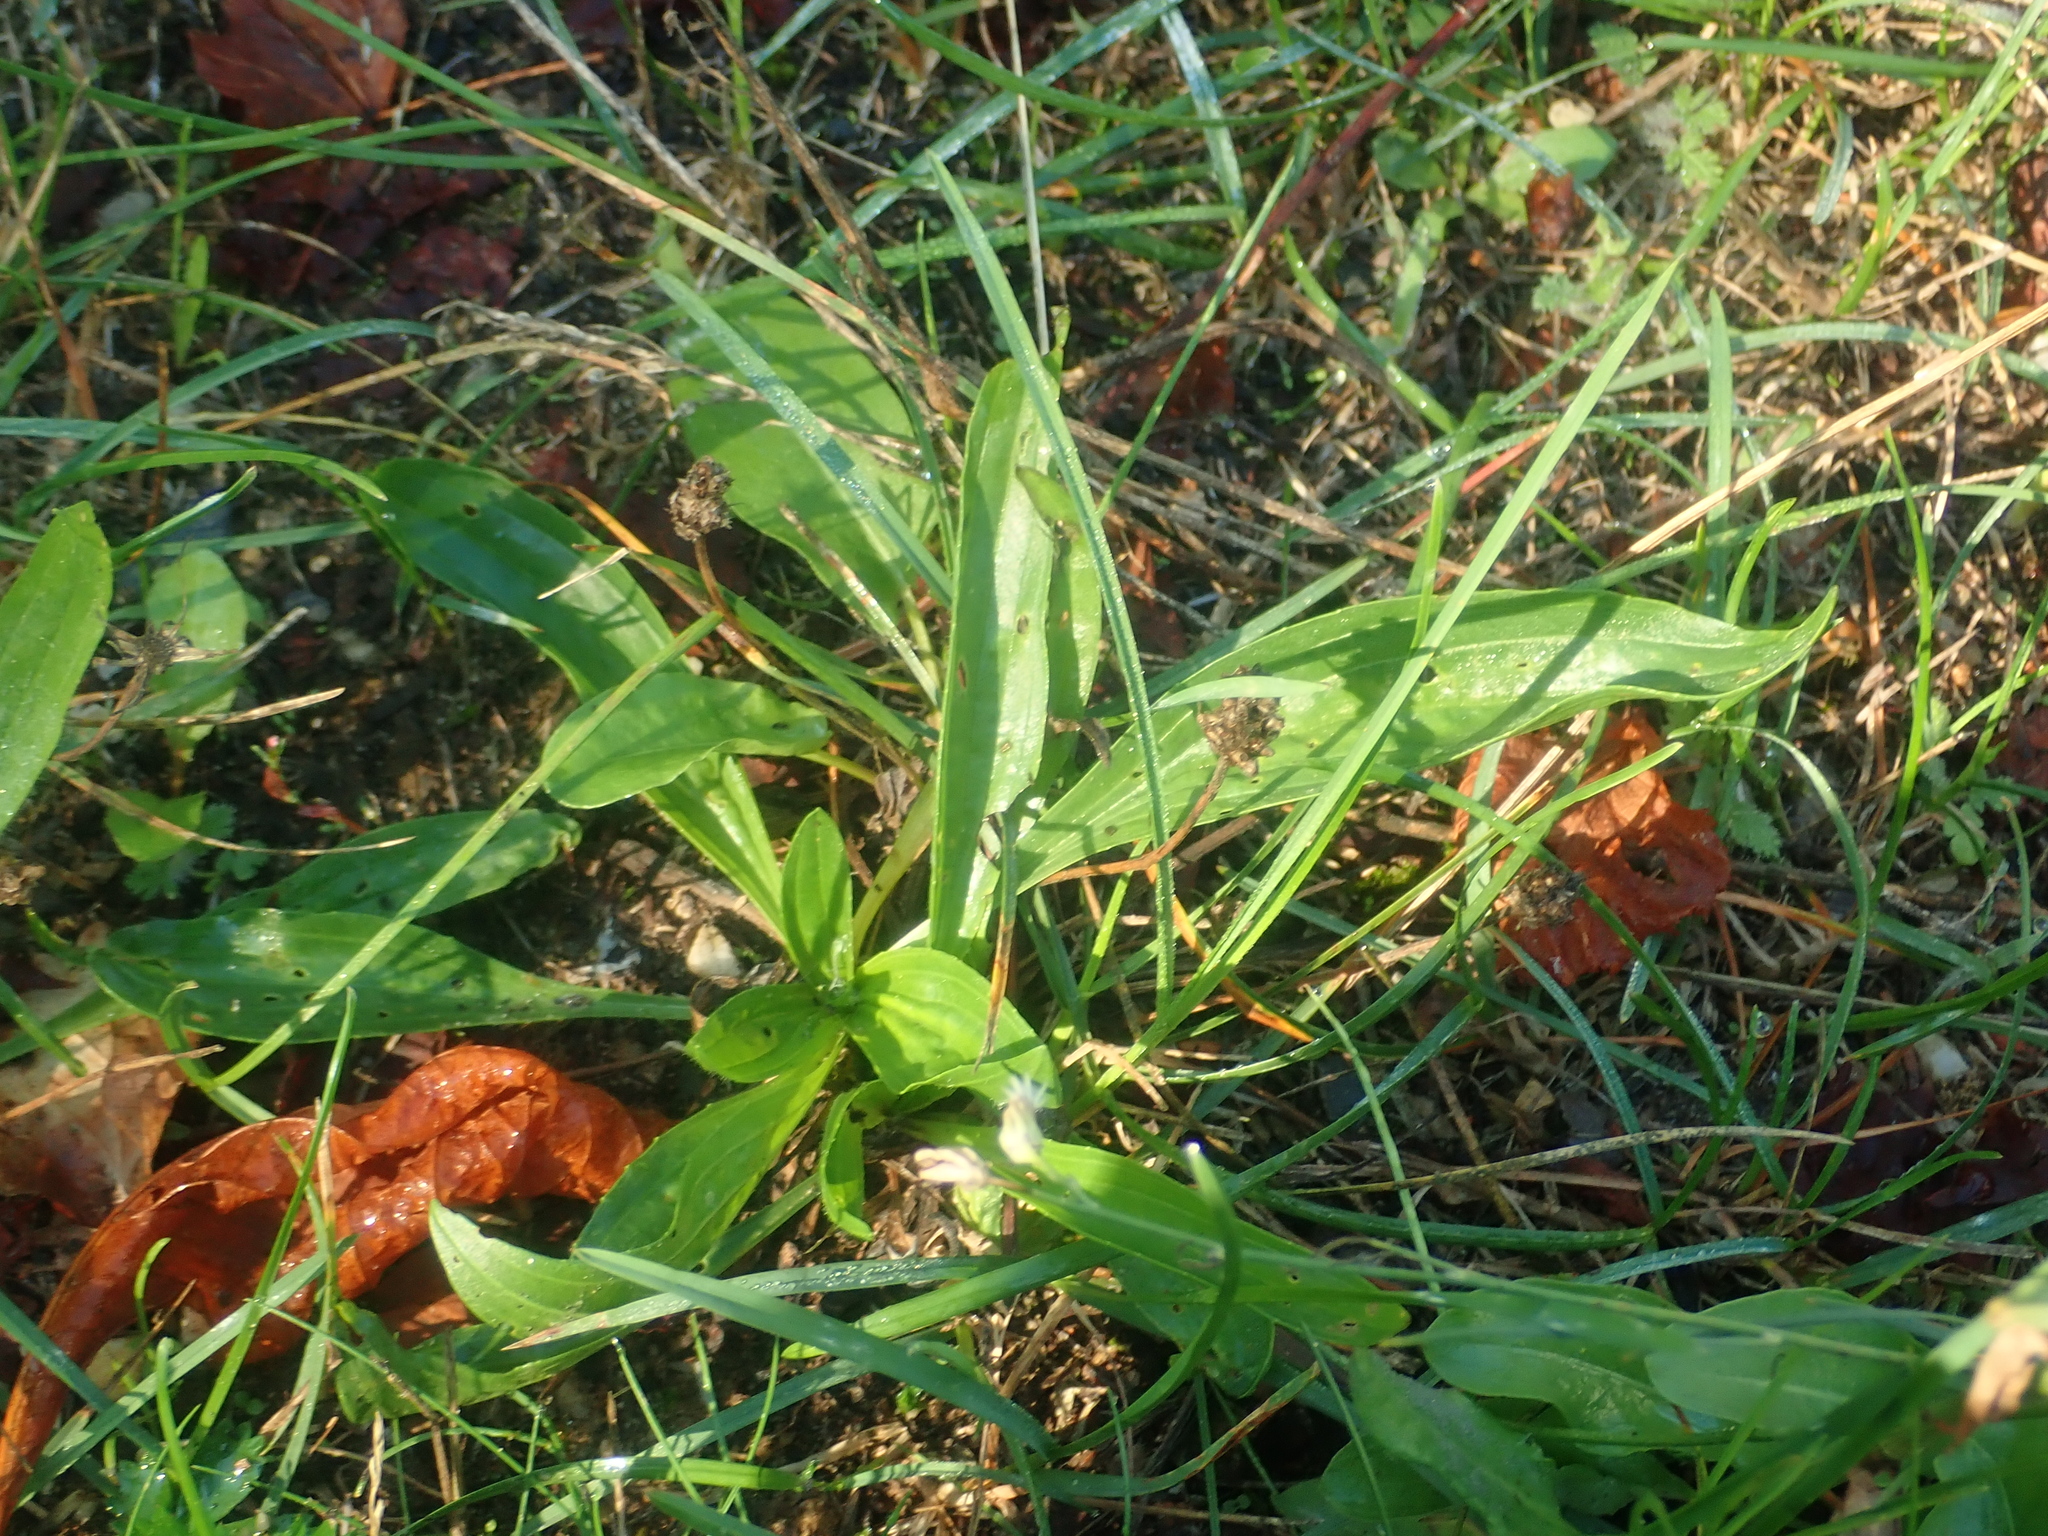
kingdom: Plantae
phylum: Tracheophyta
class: Magnoliopsida
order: Lamiales
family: Plantaginaceae
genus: Plantago
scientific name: Plantago lanceolata
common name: Ribwort plantain
